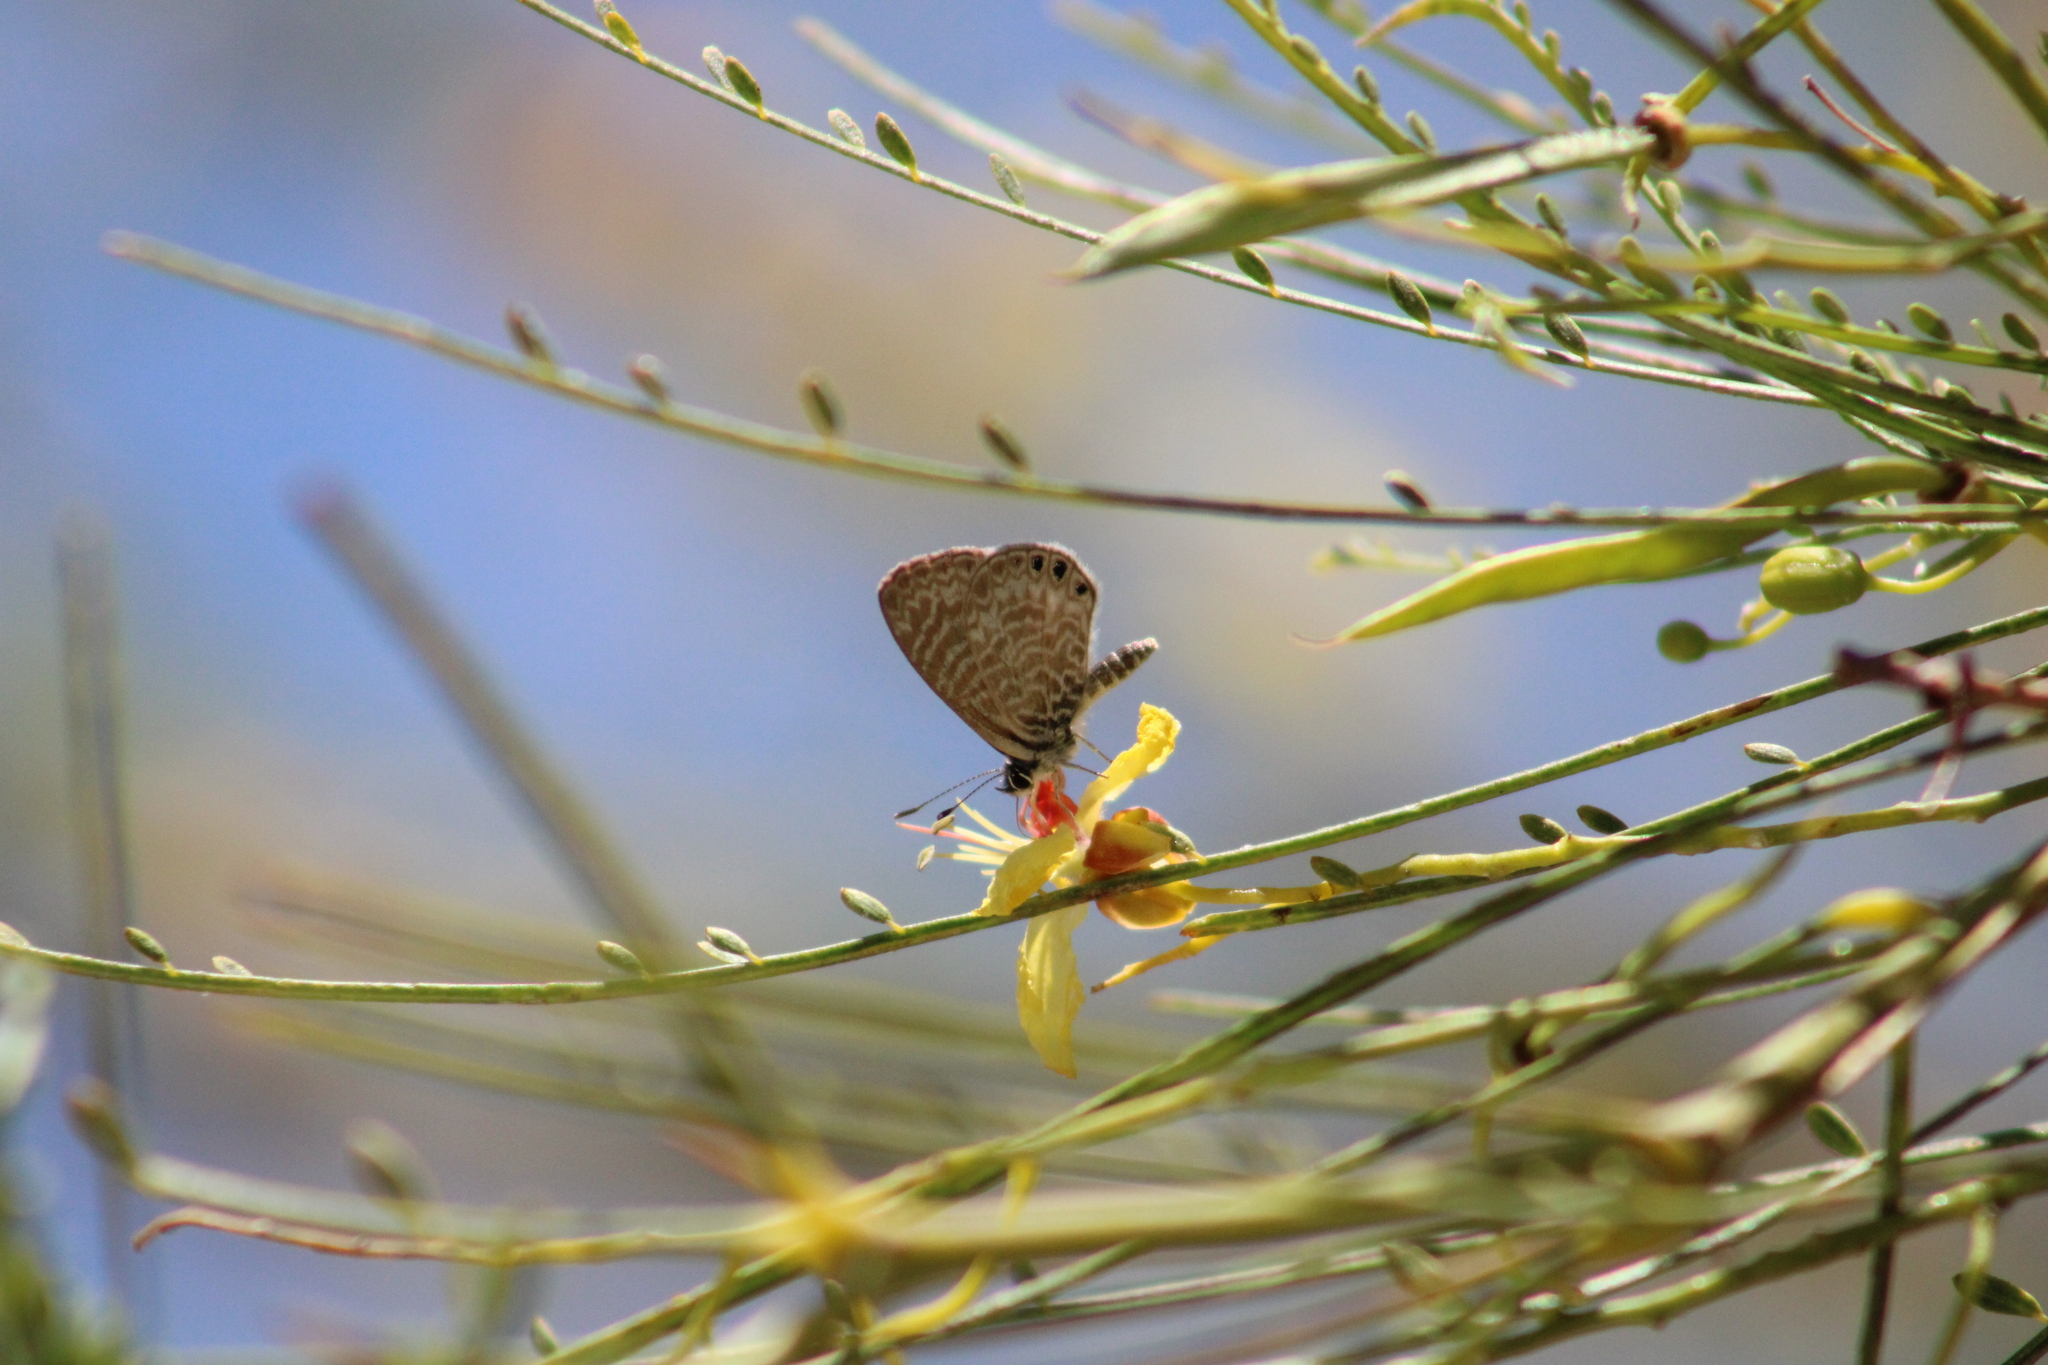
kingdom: Animalia
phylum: Arthropoda
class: Insecta
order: Lepidoptera
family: Lycaenidae
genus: Leptotes
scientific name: Leptotes trigemmatus
